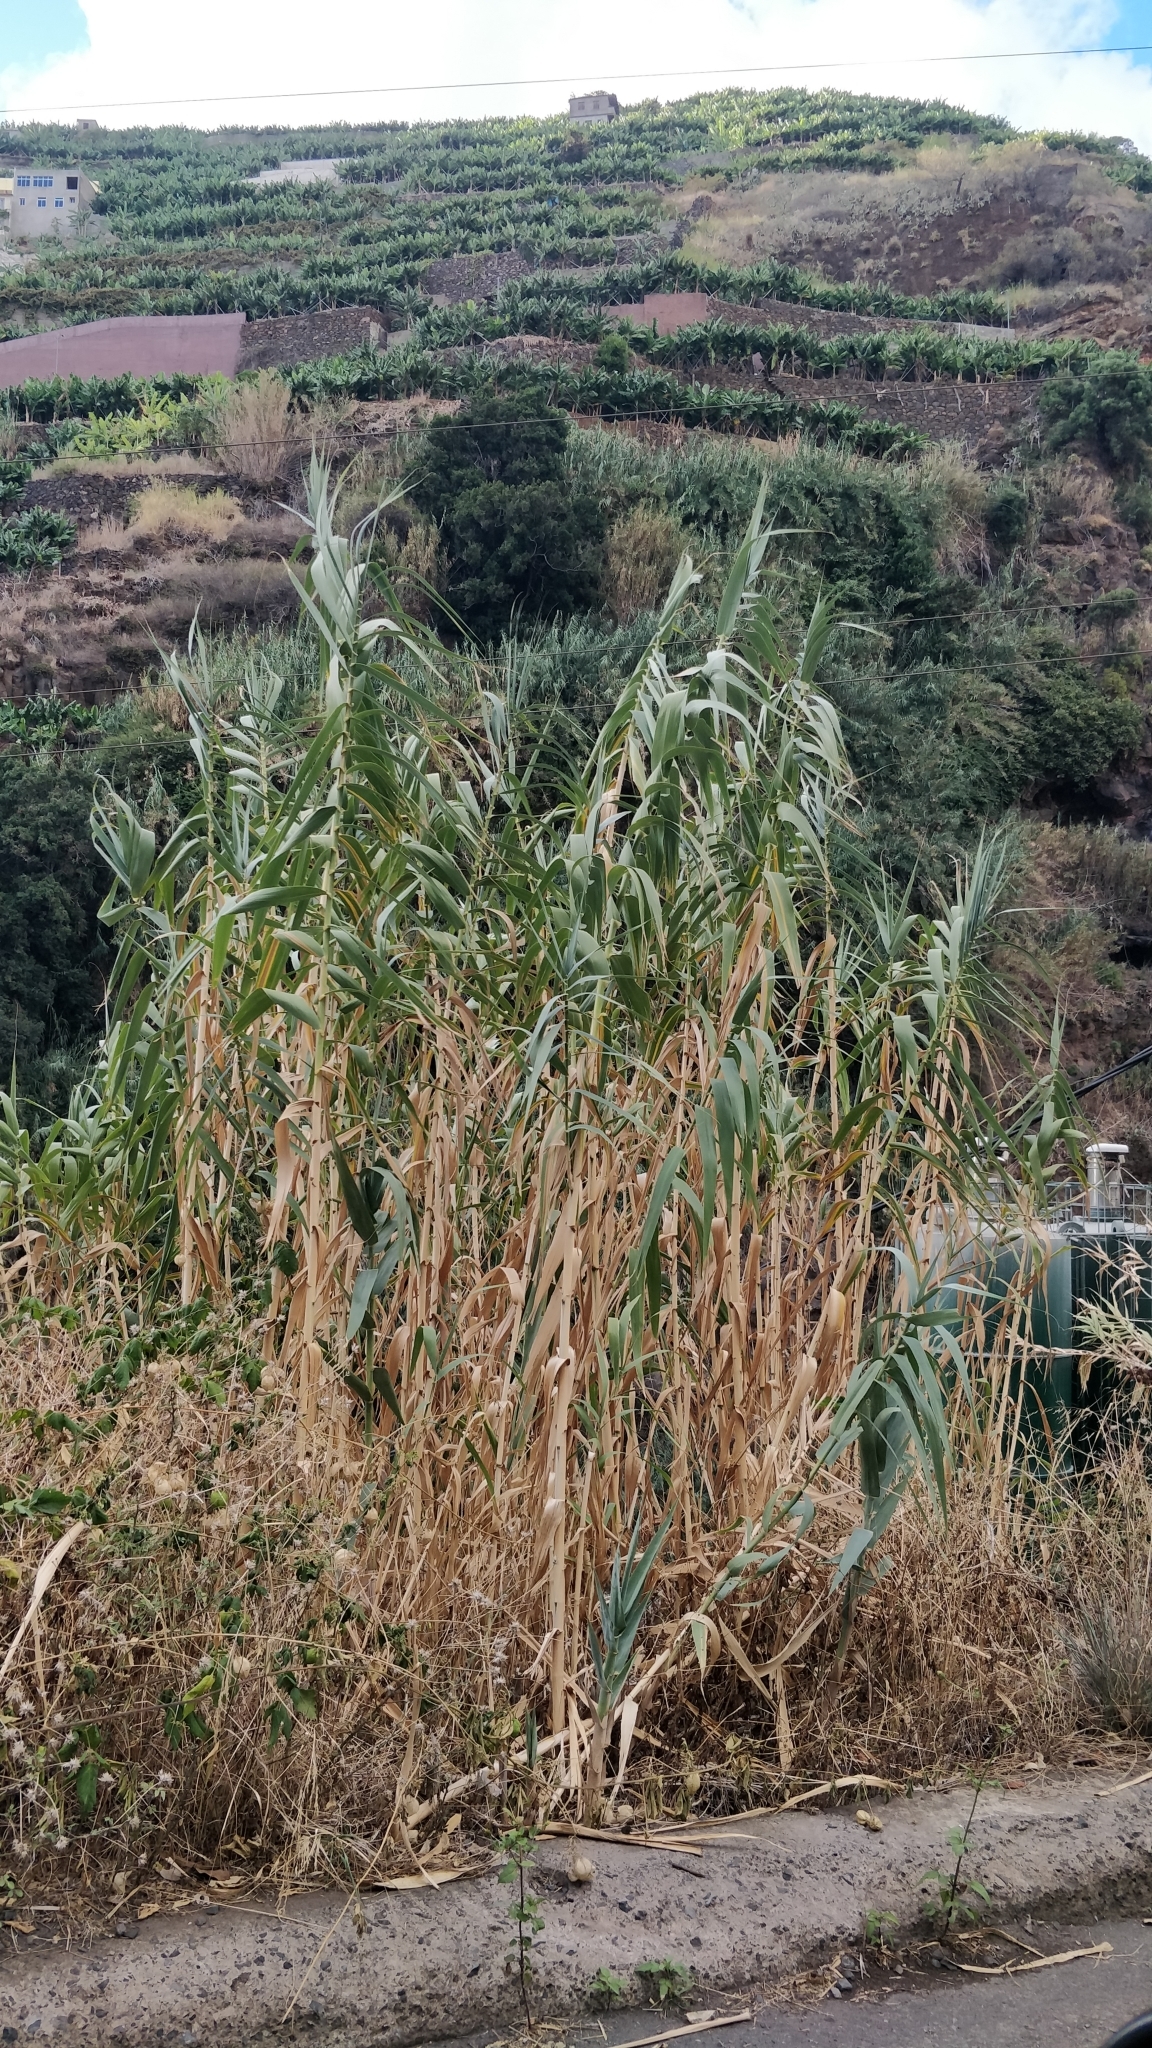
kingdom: Plantae
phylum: Tracheophyta
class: Liliopsida
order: Poales
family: Poaceae
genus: Arundo
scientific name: Arundo donax
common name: Giant reed
